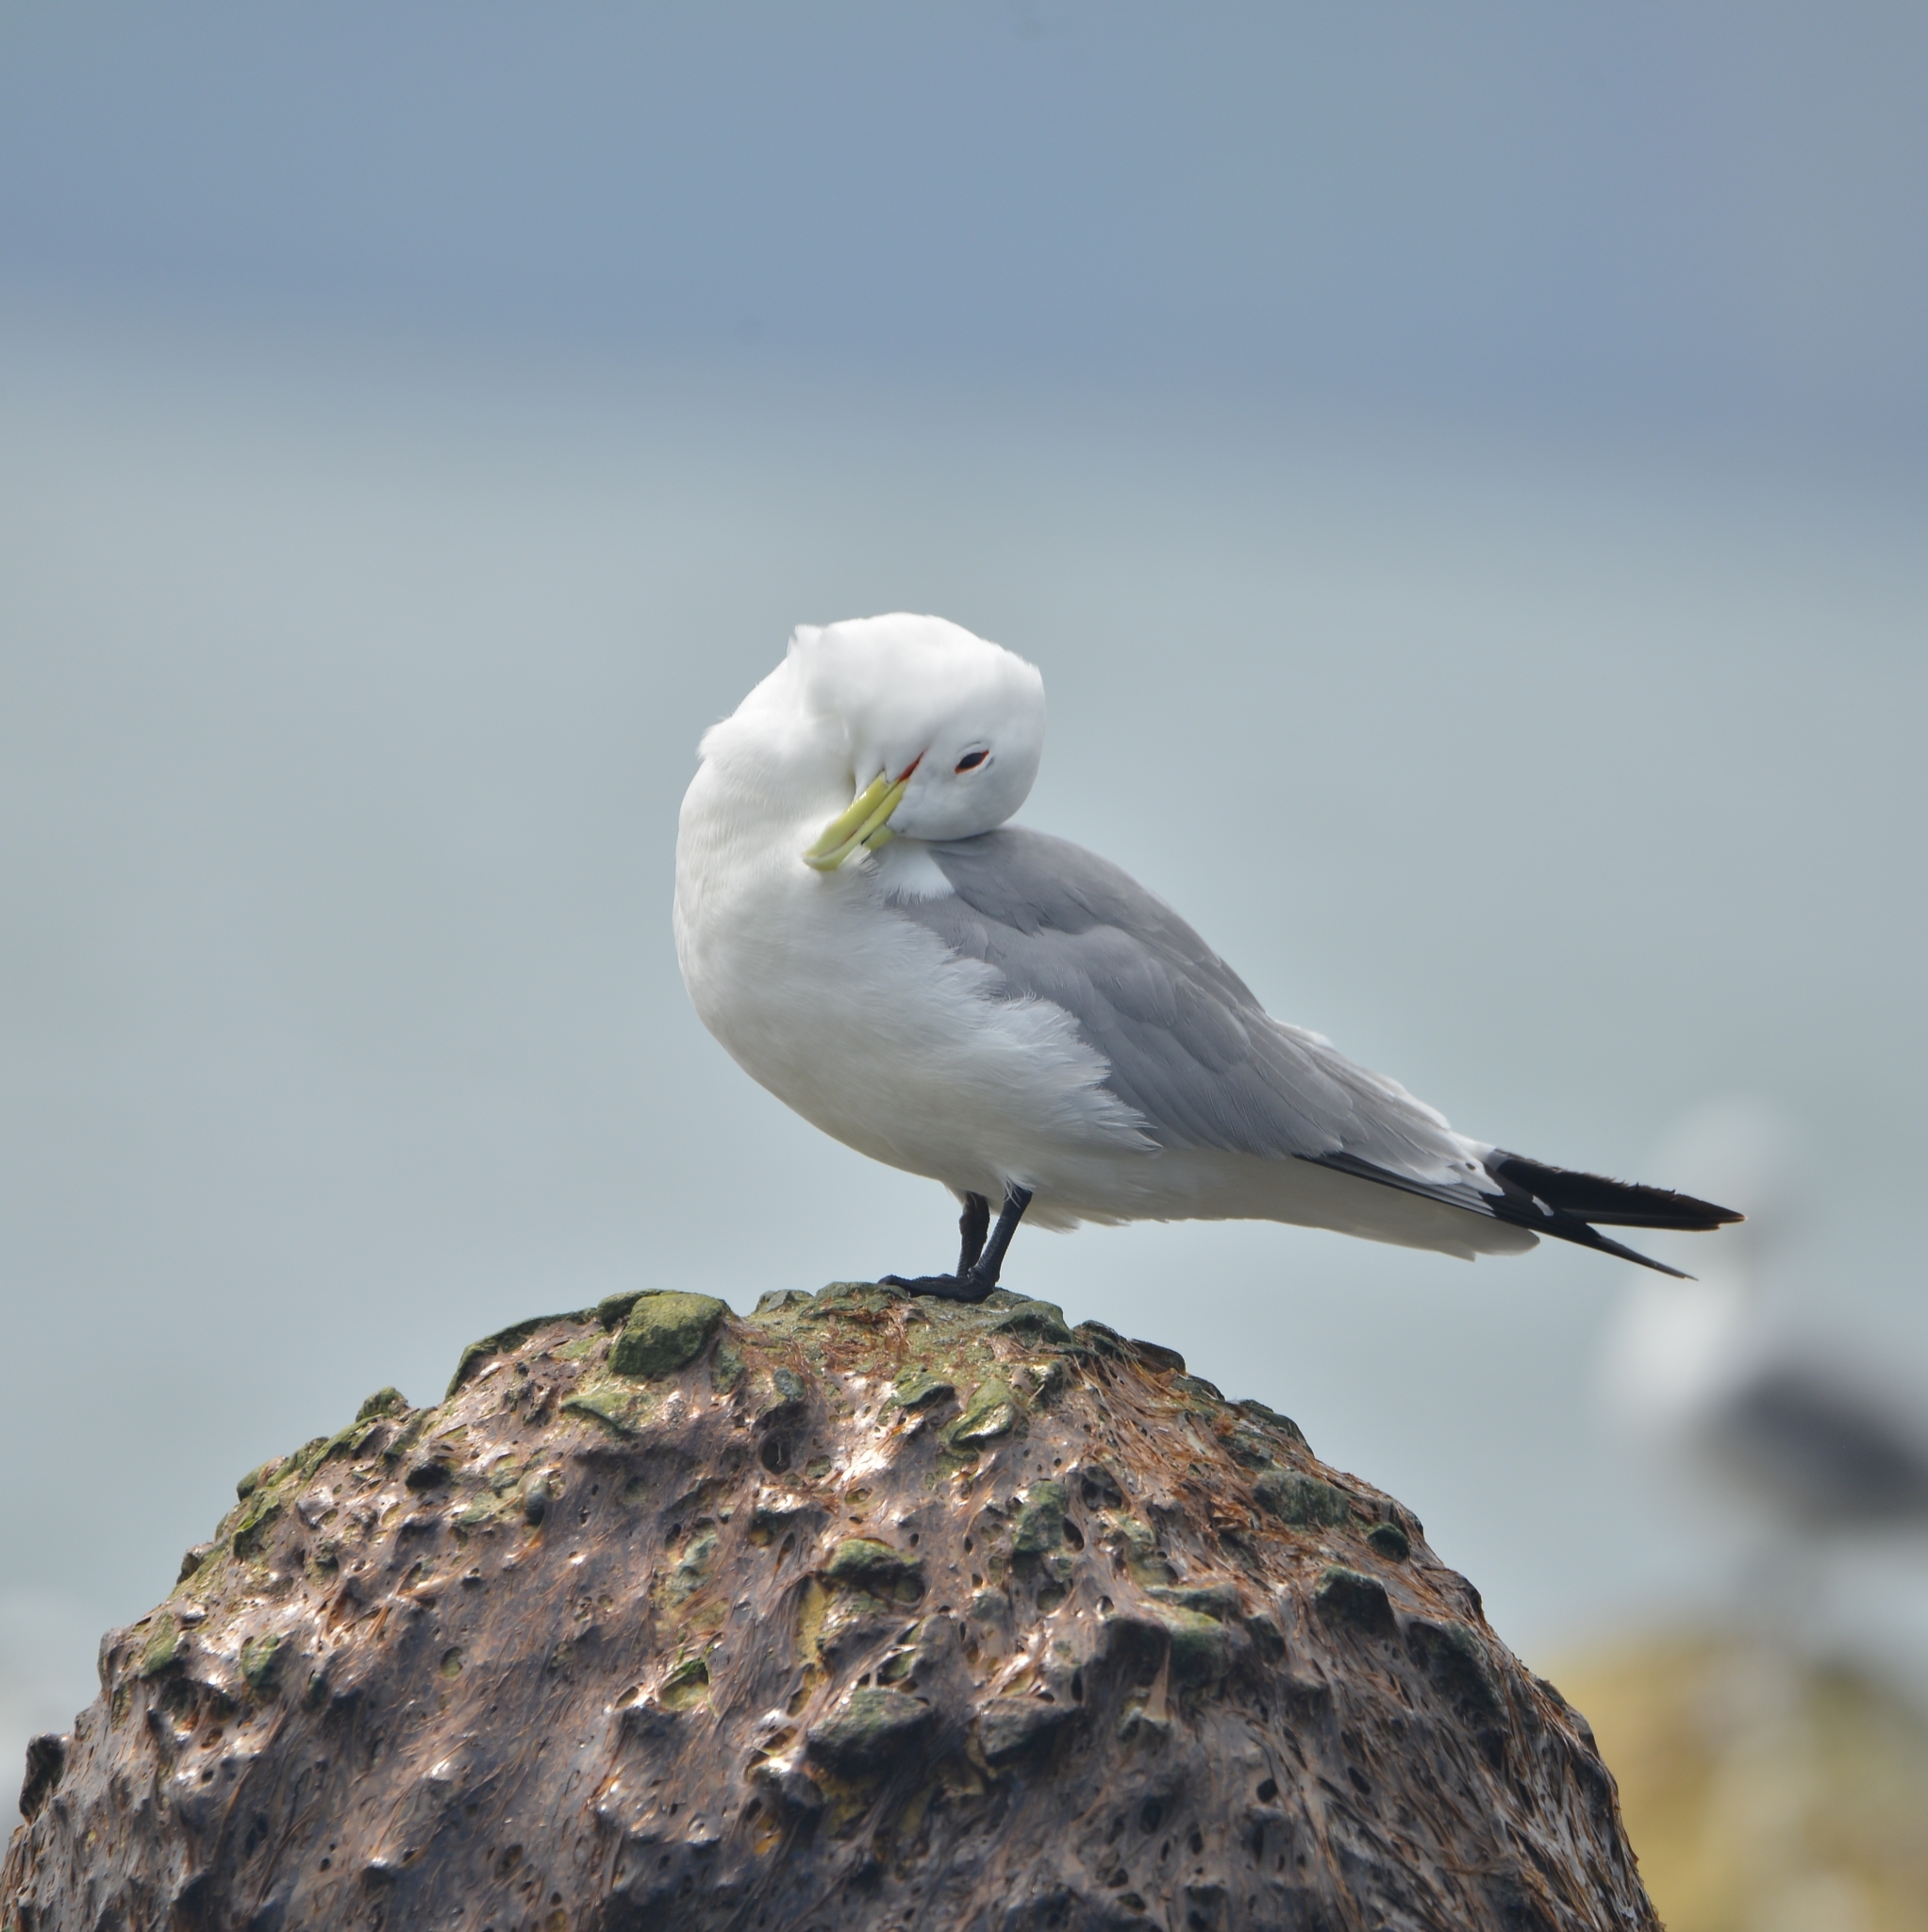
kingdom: Animalia
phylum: Chordata
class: Aves
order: Charadriiformes
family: Laridae
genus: Rissa
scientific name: Rissa tridactyla
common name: Black-legged kittiwake
